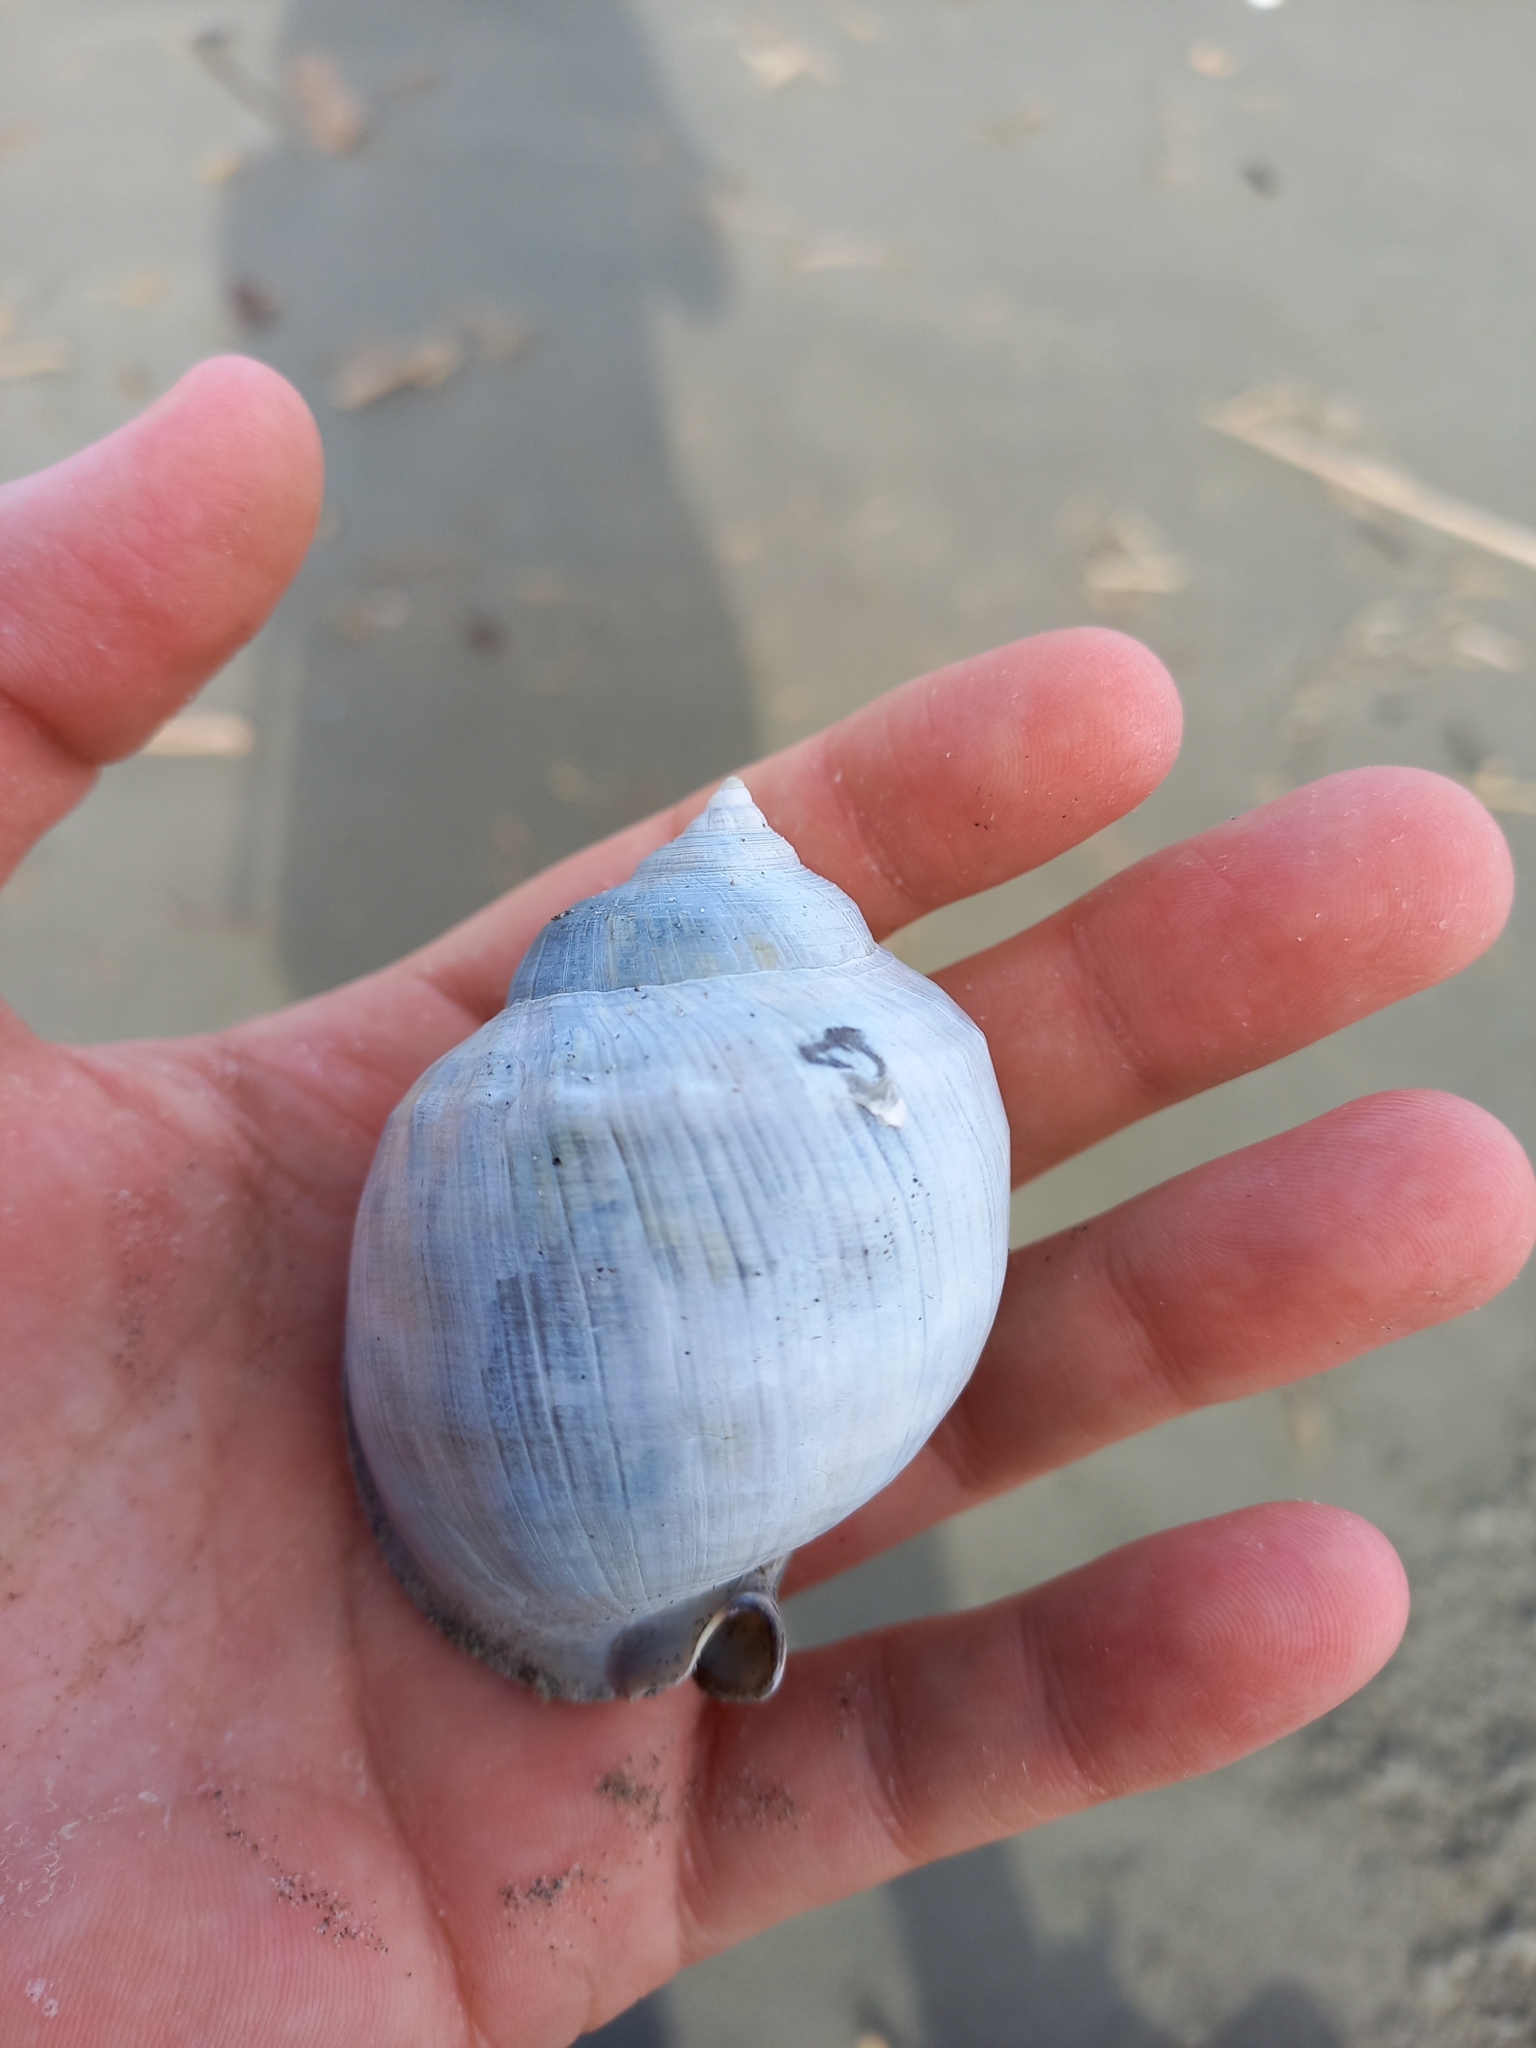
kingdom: Animalia
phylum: Mollusca
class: Gastropoda
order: Littorinimorpha
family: Cassidae
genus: Semicassis
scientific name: Semicassis pyrum
